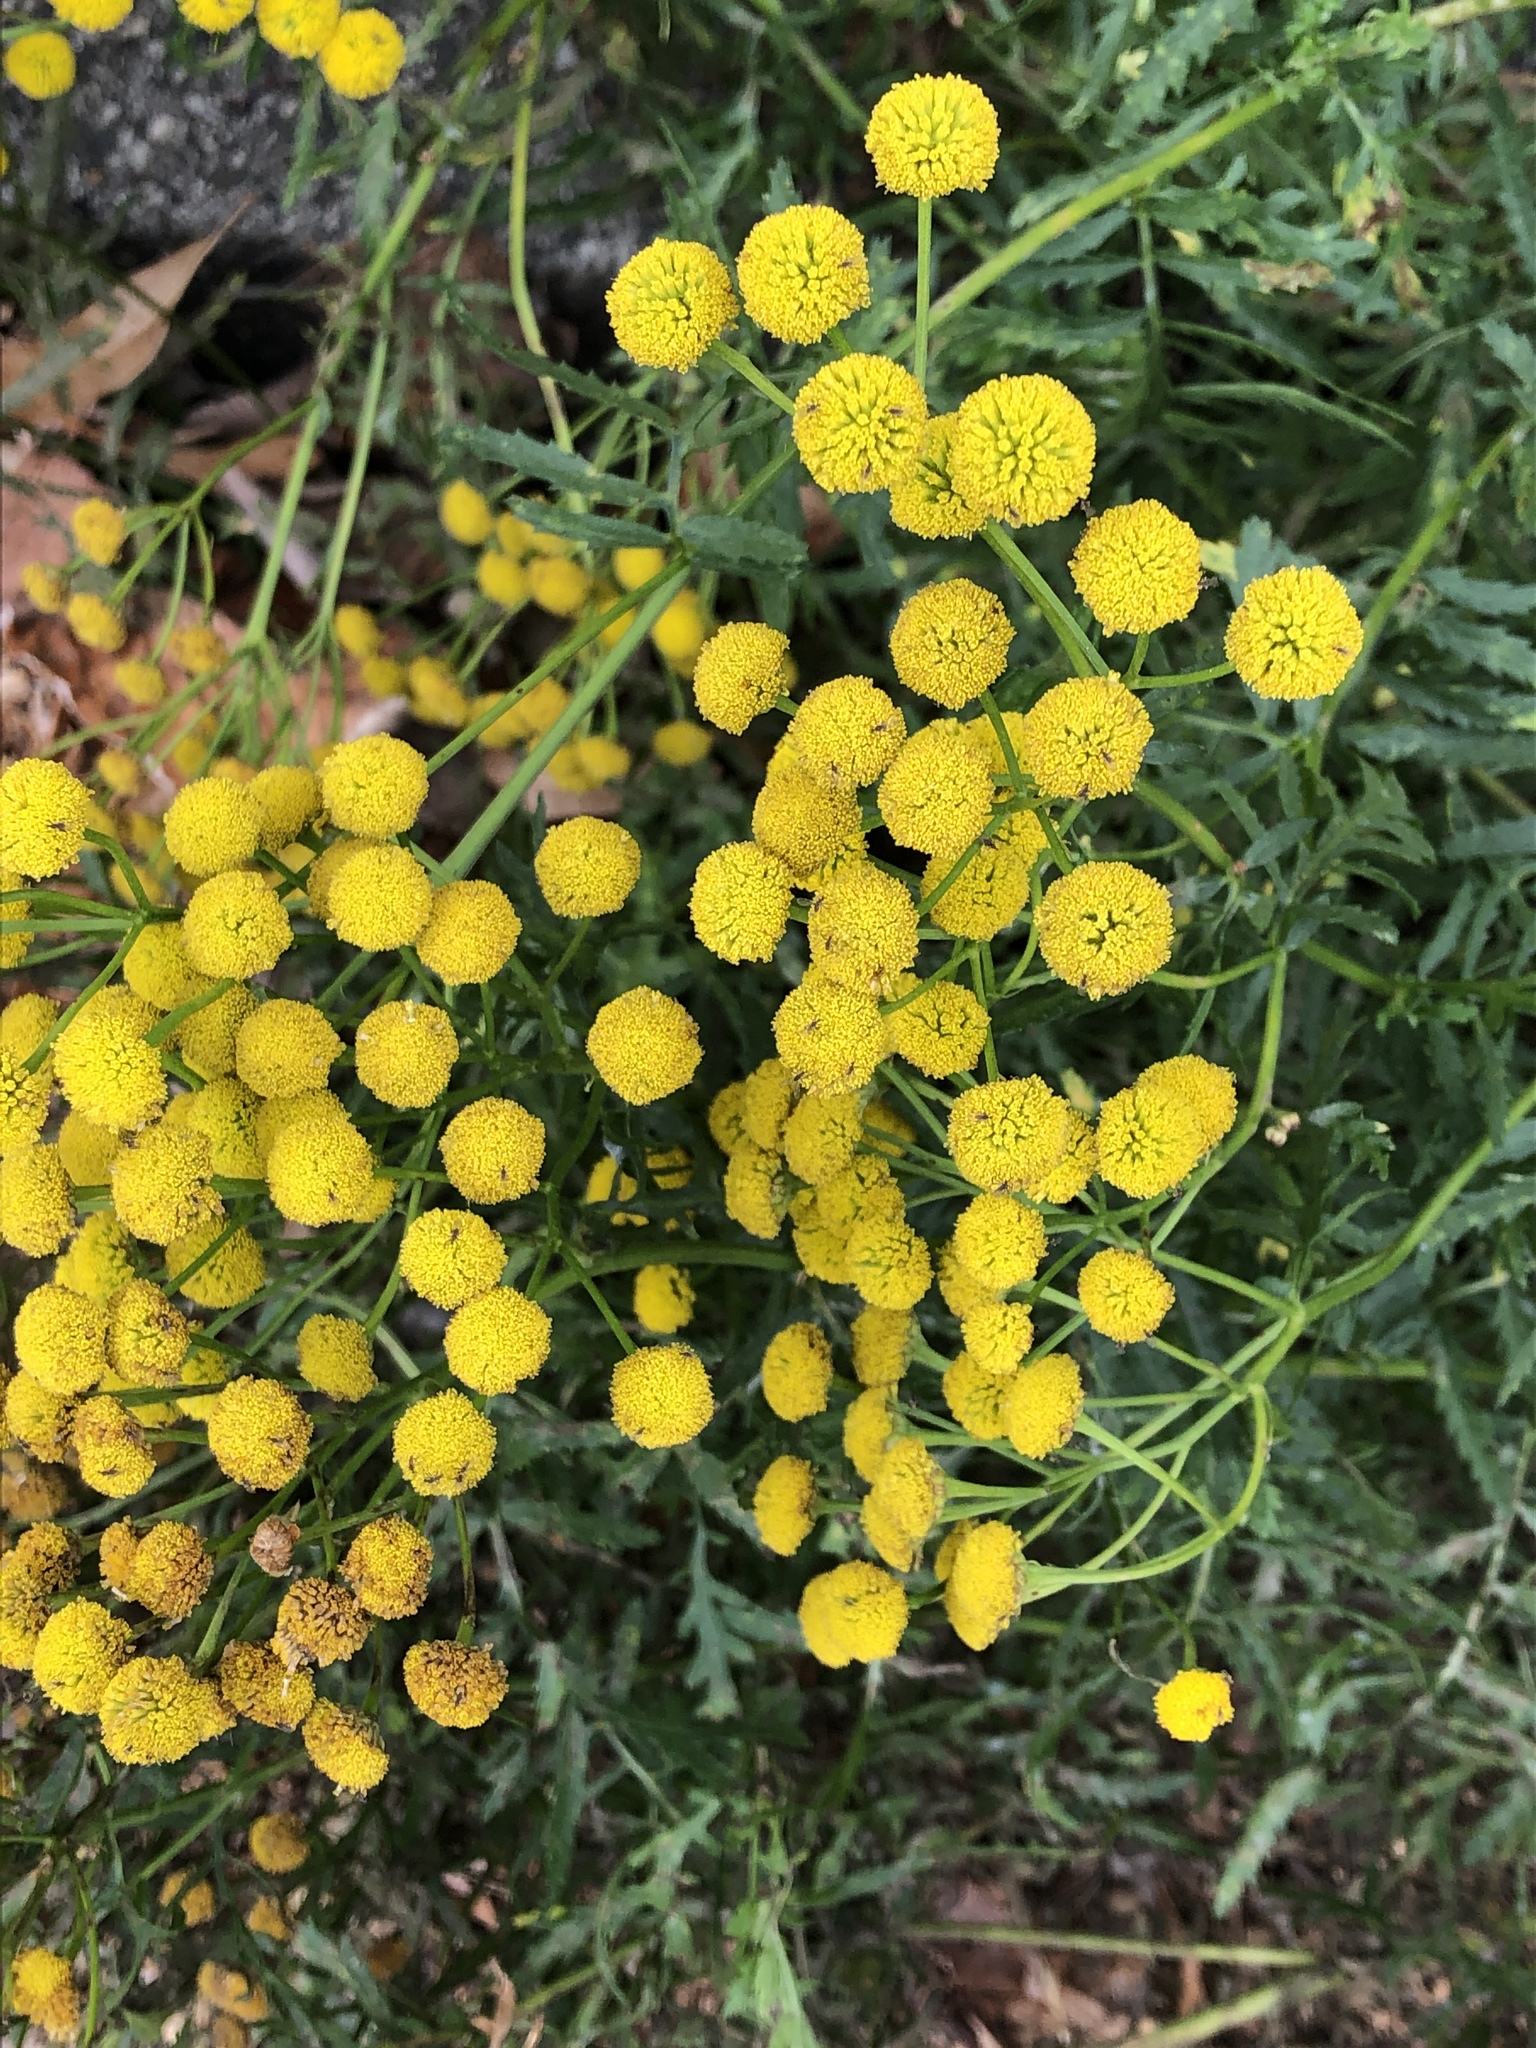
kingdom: Plantae
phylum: Tracheophyta
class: Magnoliopsida
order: Asterales
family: Asteraceae
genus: Tanacetum
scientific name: Tanacetum vulgare
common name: Common tansy
